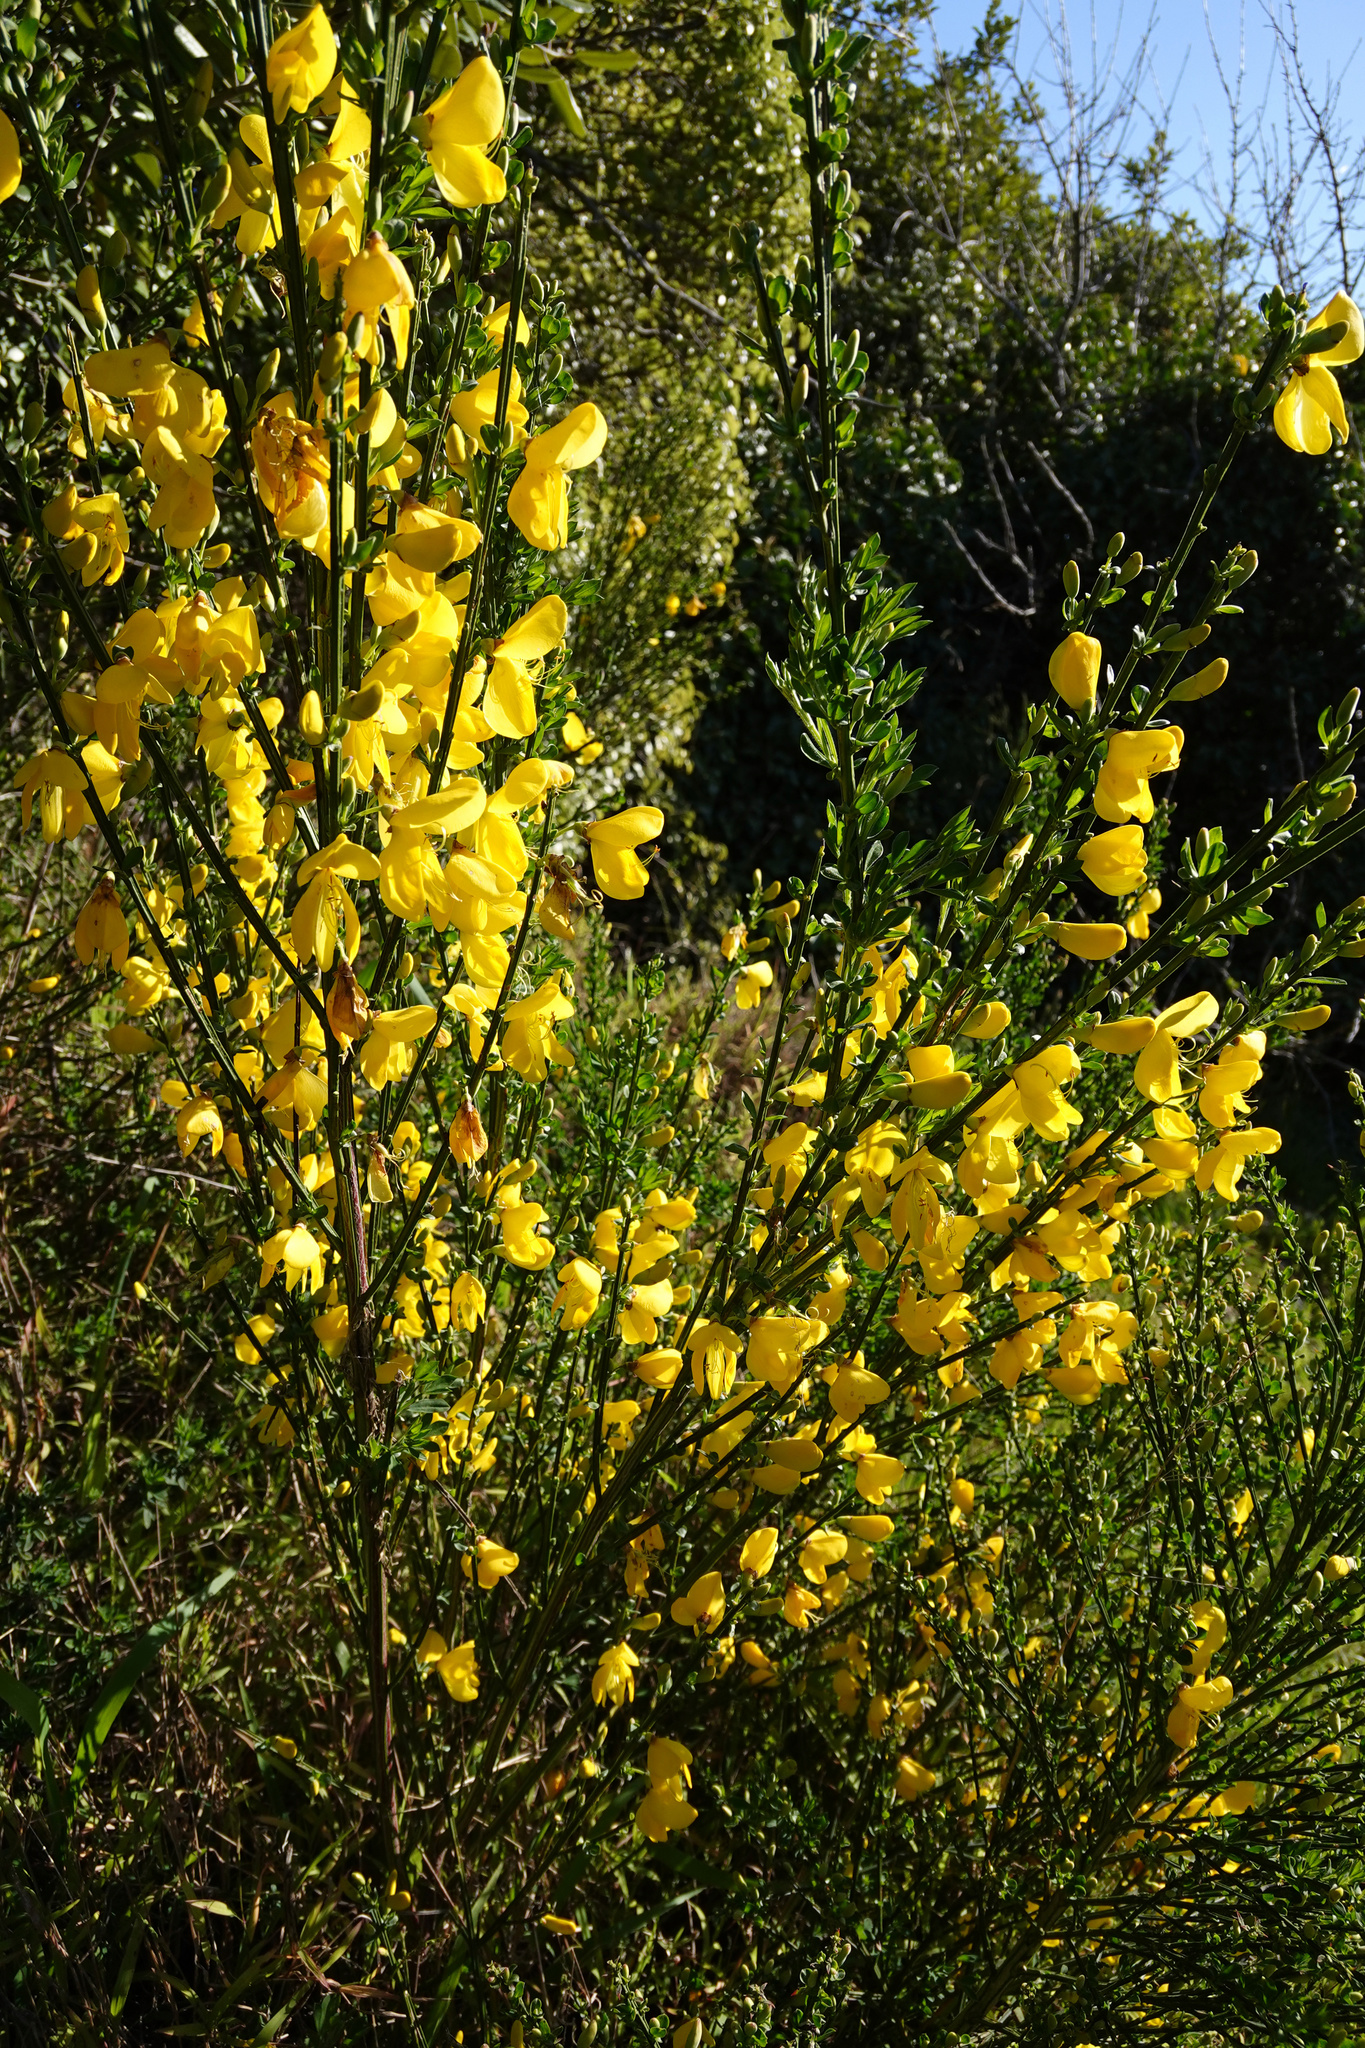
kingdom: Plantae
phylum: Tracheophyta
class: Magnoliopsida
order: Fabales
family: Fabaceae
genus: Cytisus
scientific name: Cytisus scoparius
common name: Scotch broom
